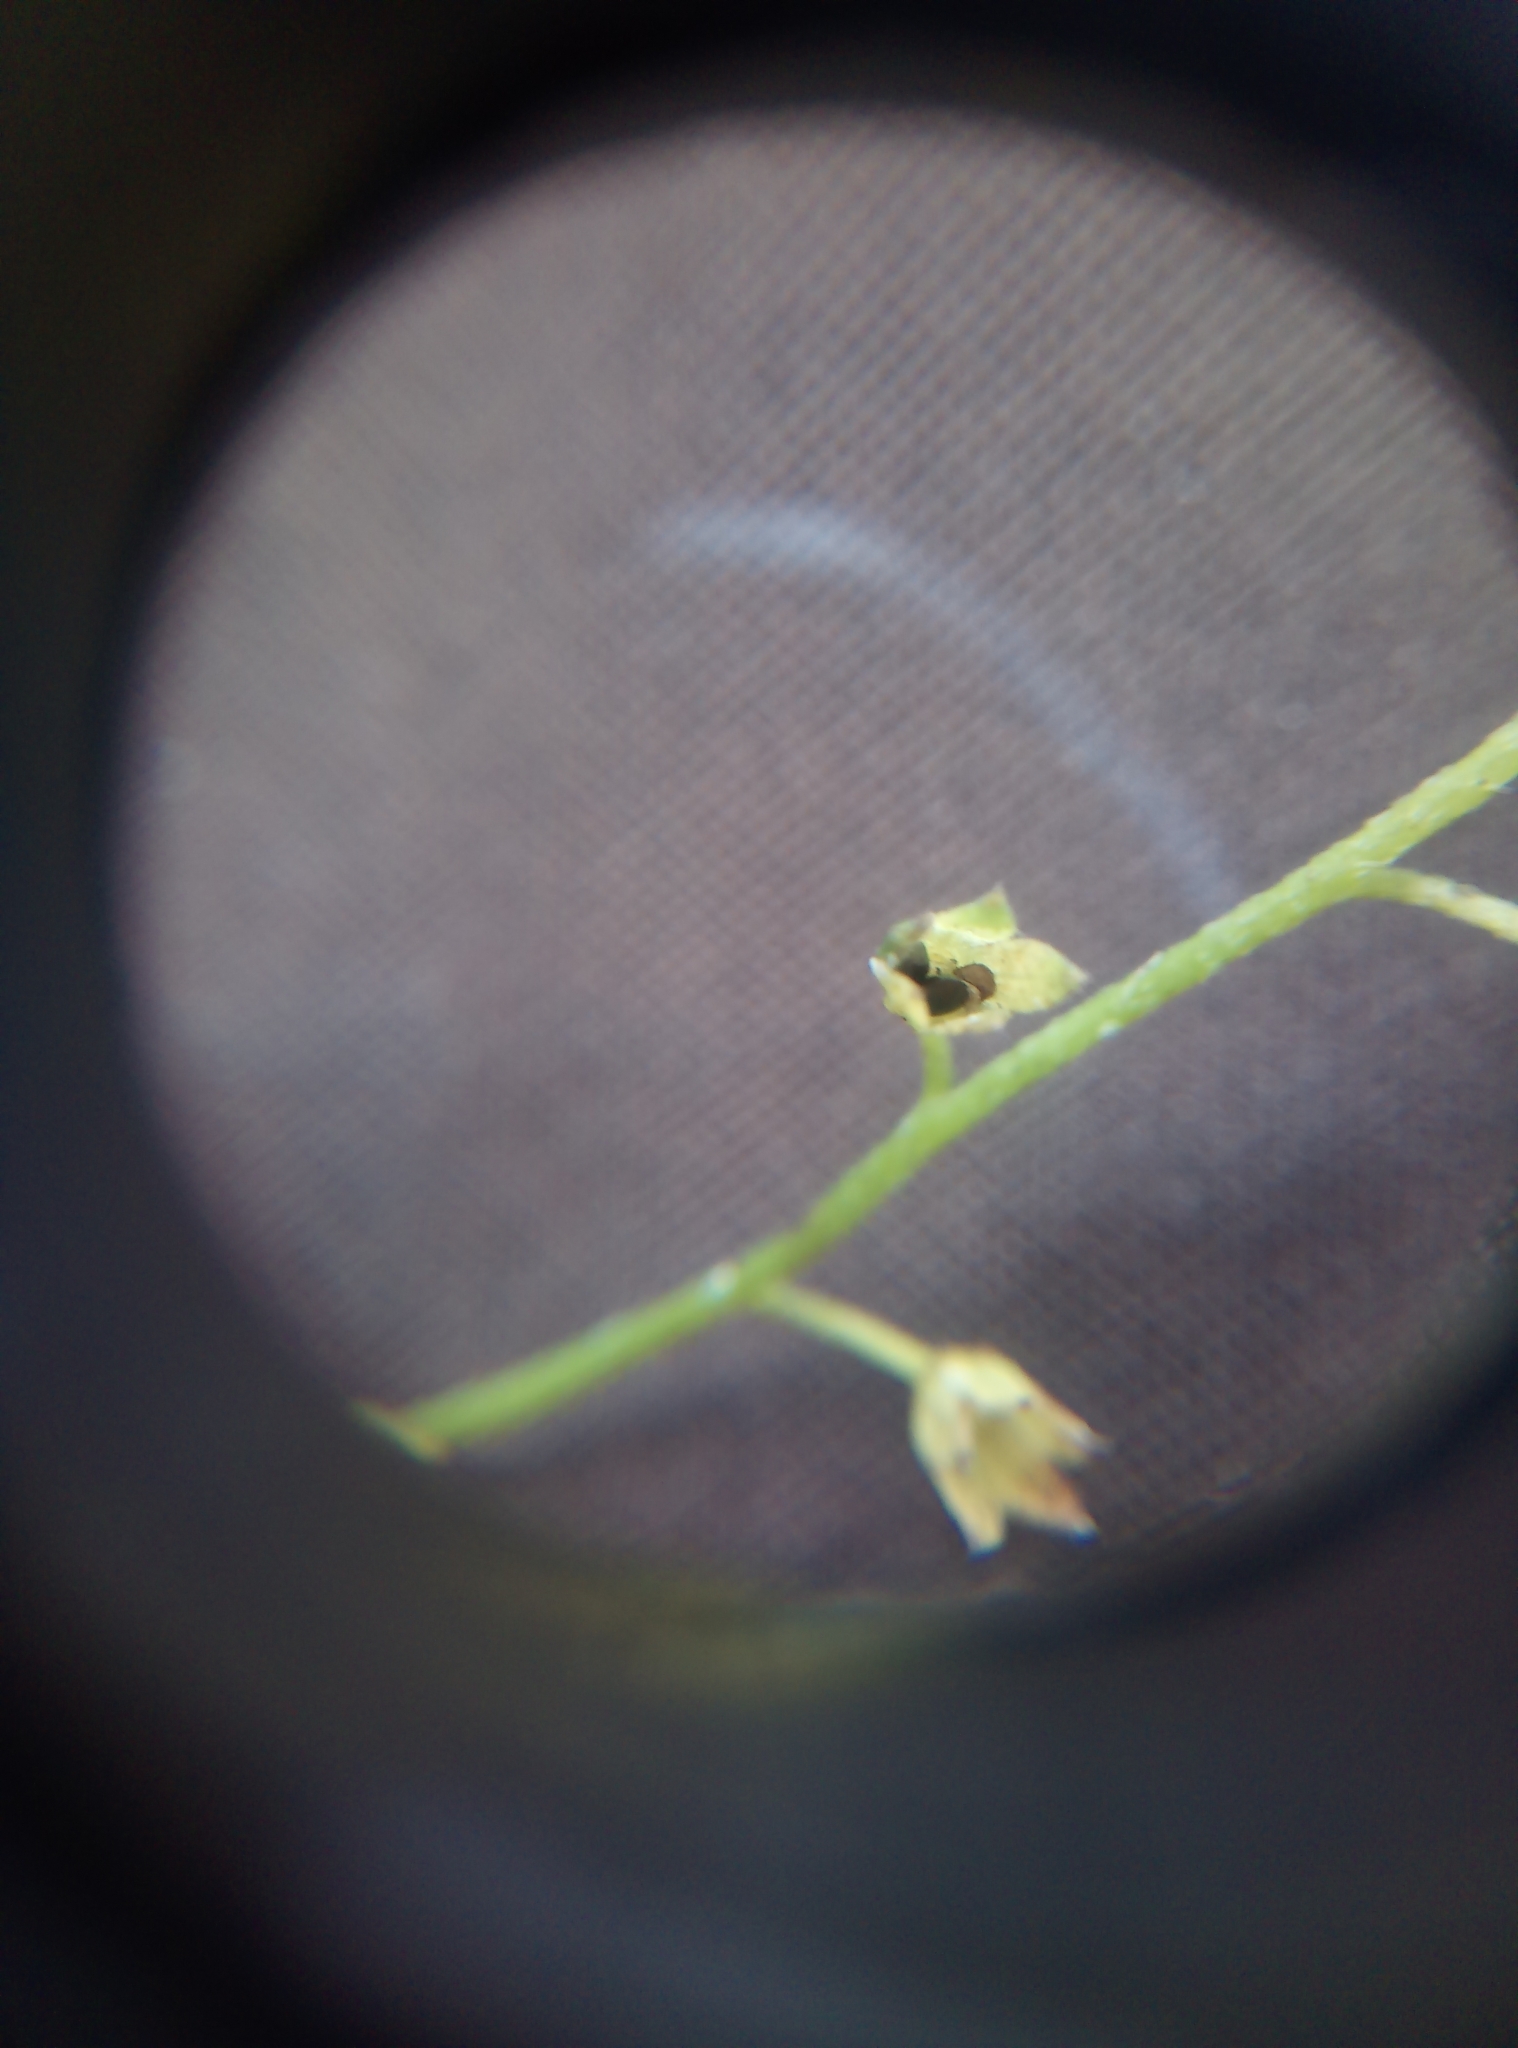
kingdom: Plantae
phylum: Tracheophyta
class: Magnoliopsida
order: Boraginales
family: Boraginaceae
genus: Myosotis
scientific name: Myosotis scorpioides
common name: Water forget-me-not
